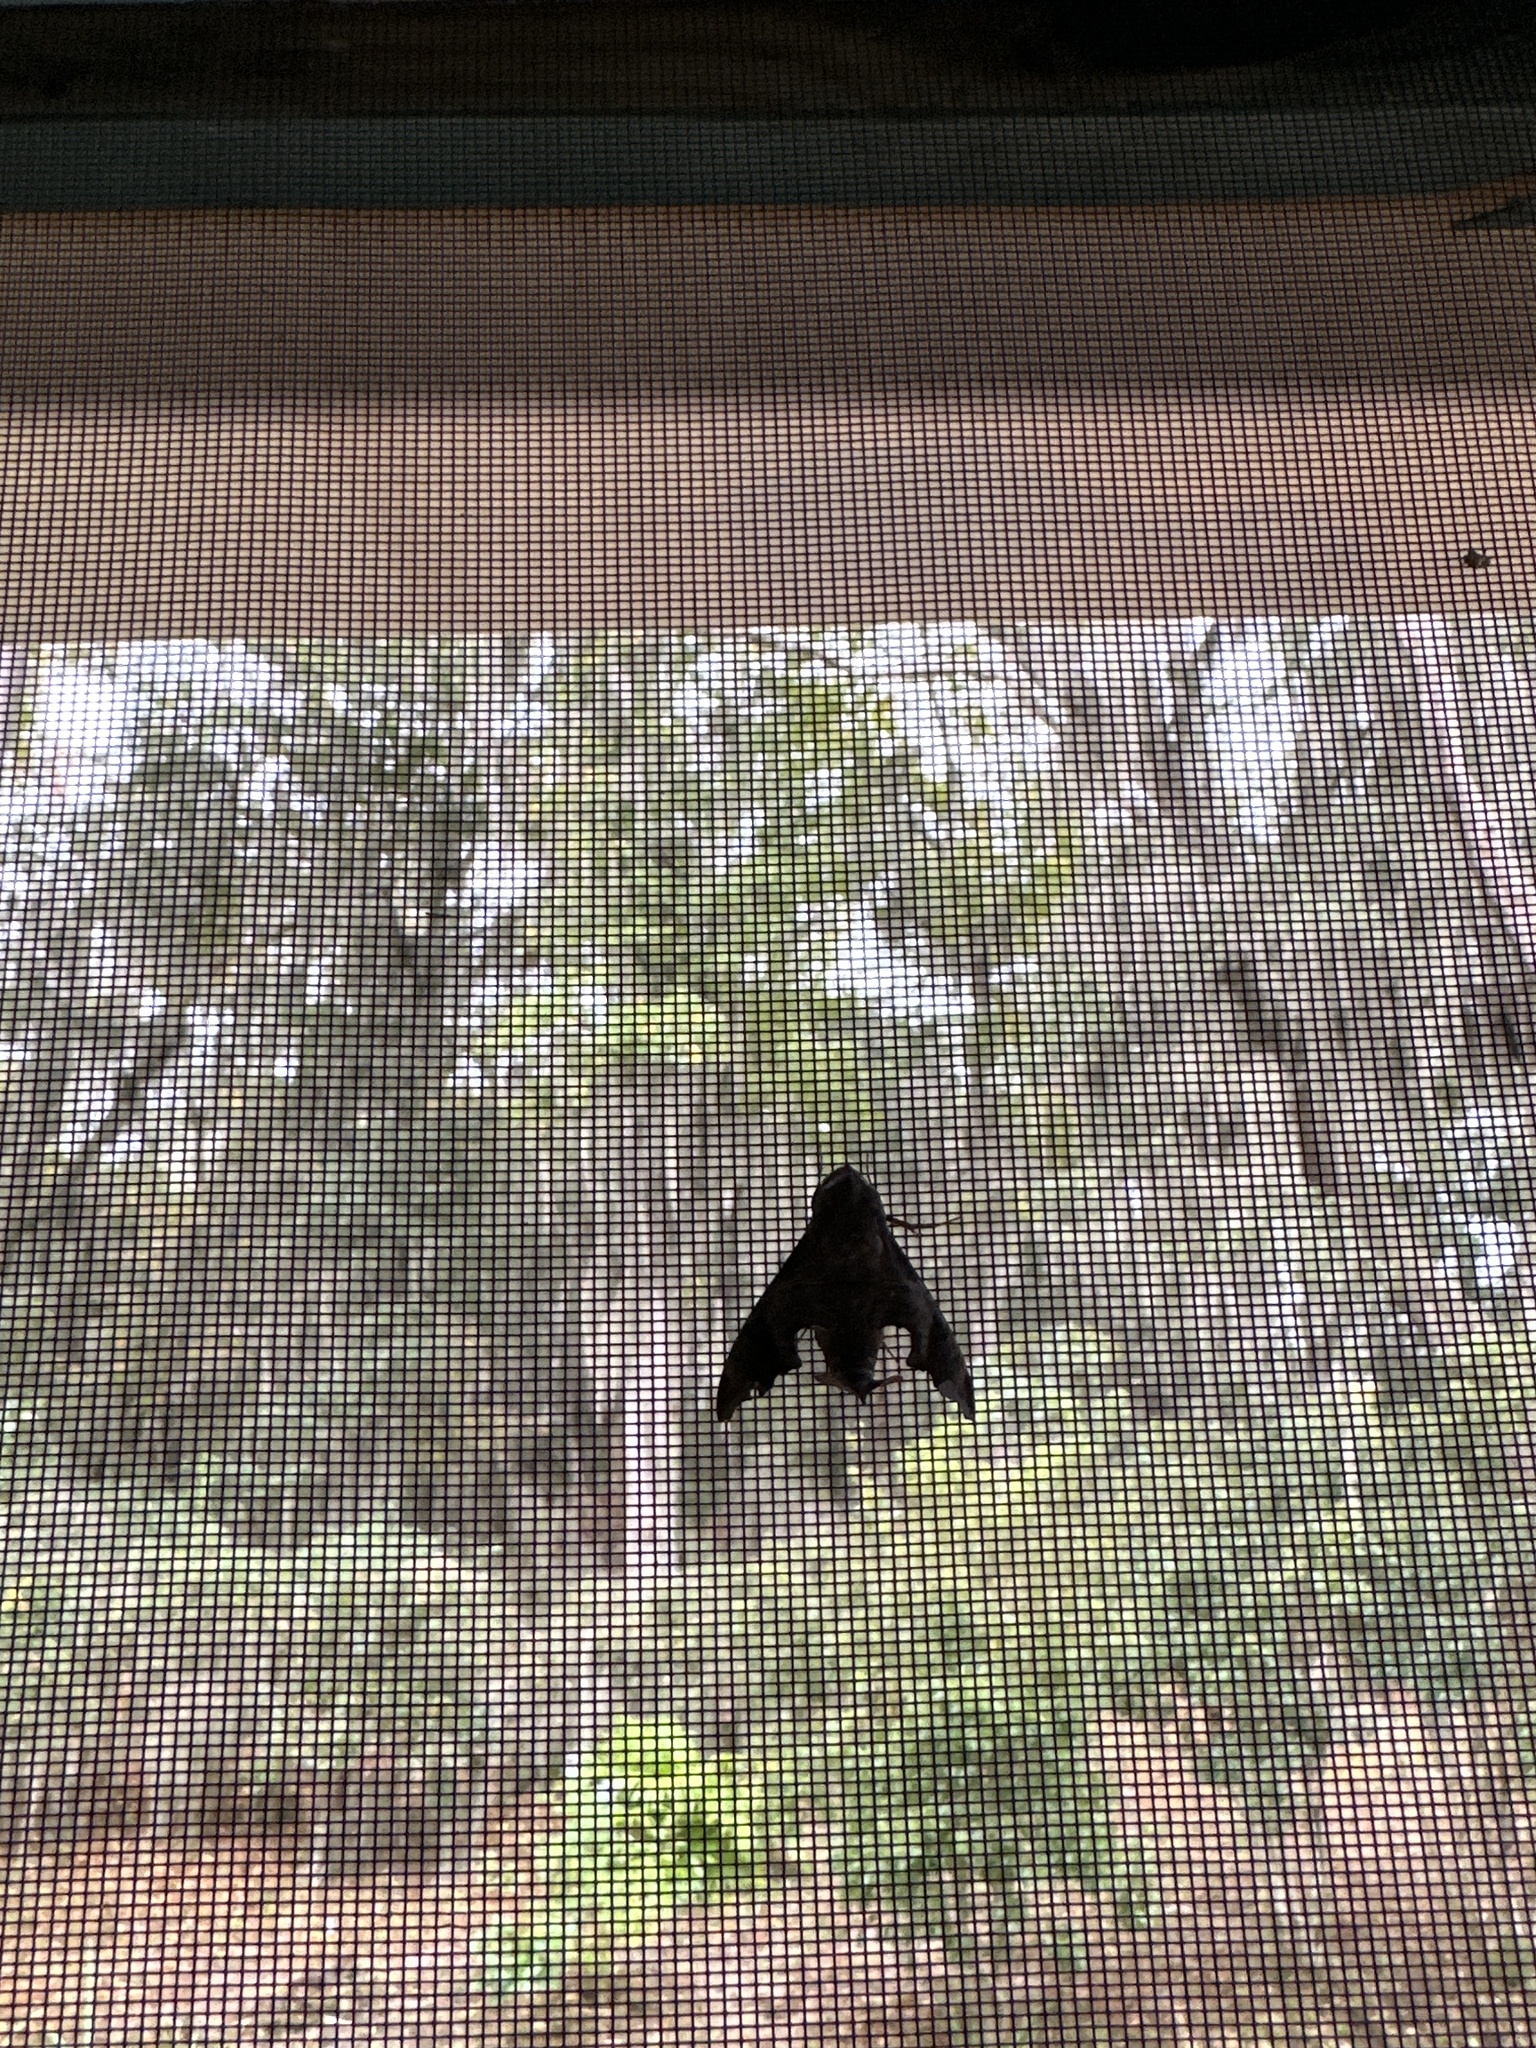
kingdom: Animalia
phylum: Arthropoda
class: Insecta
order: Lepidoptera
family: Sphingidae
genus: Enyo
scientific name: Enyo lugubris
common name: Mournful sphinx
